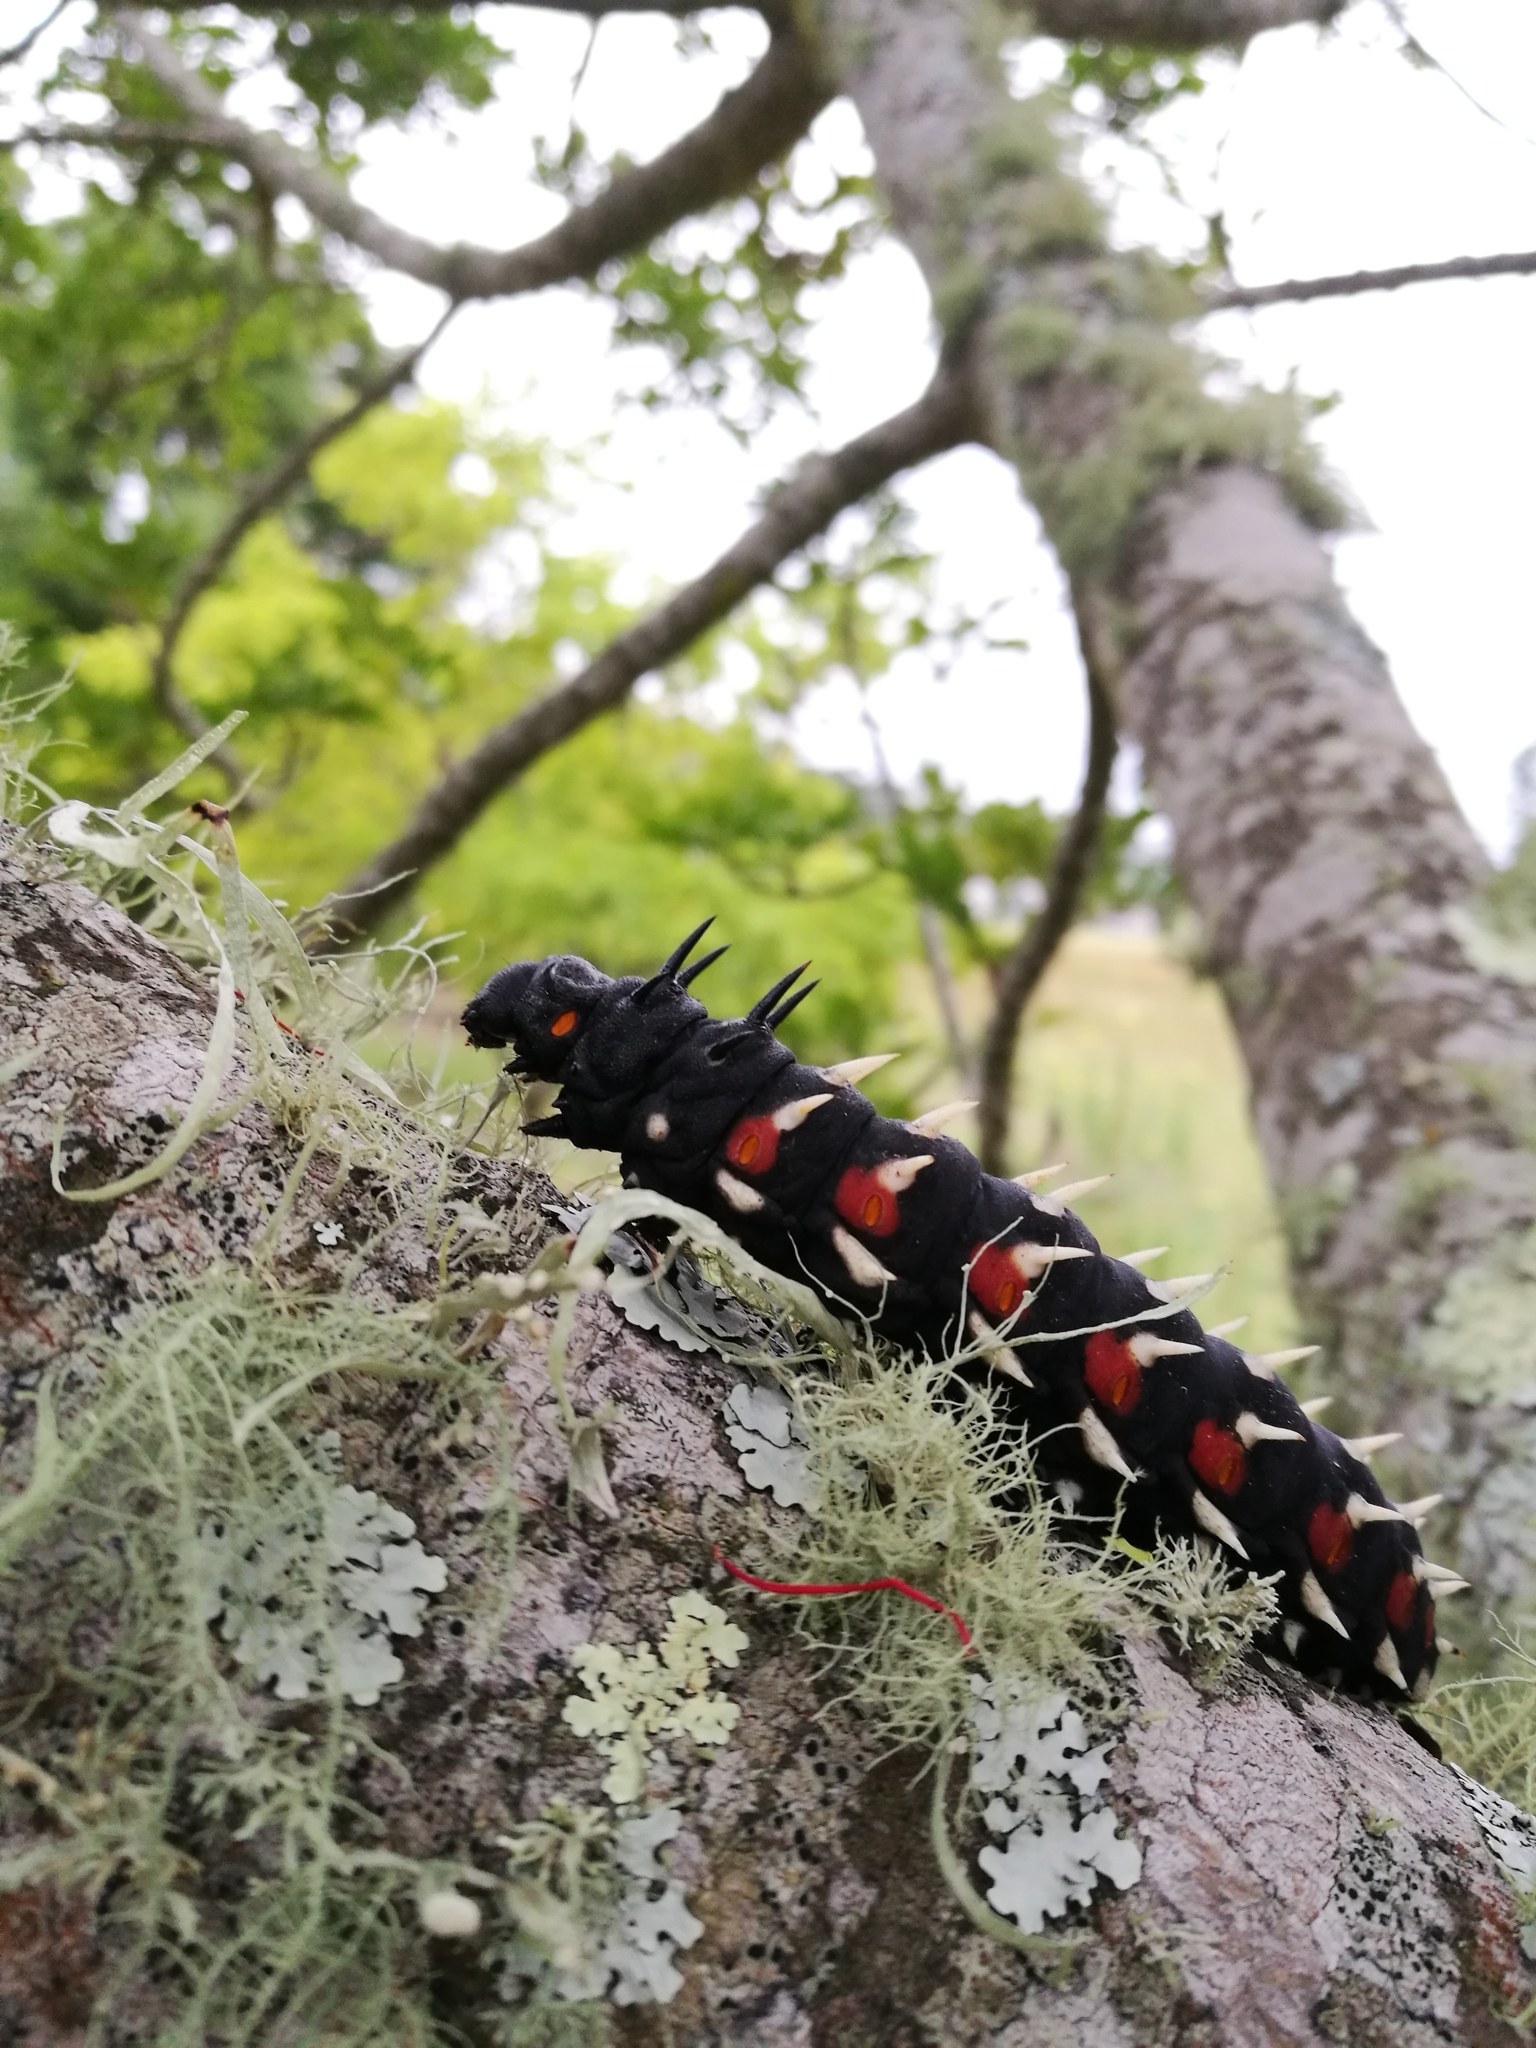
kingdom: Animalia
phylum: Arthropoda
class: Insecta
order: Lepidoptera
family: Saturniidae
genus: Bunaea
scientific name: Bunaea alcinoe
